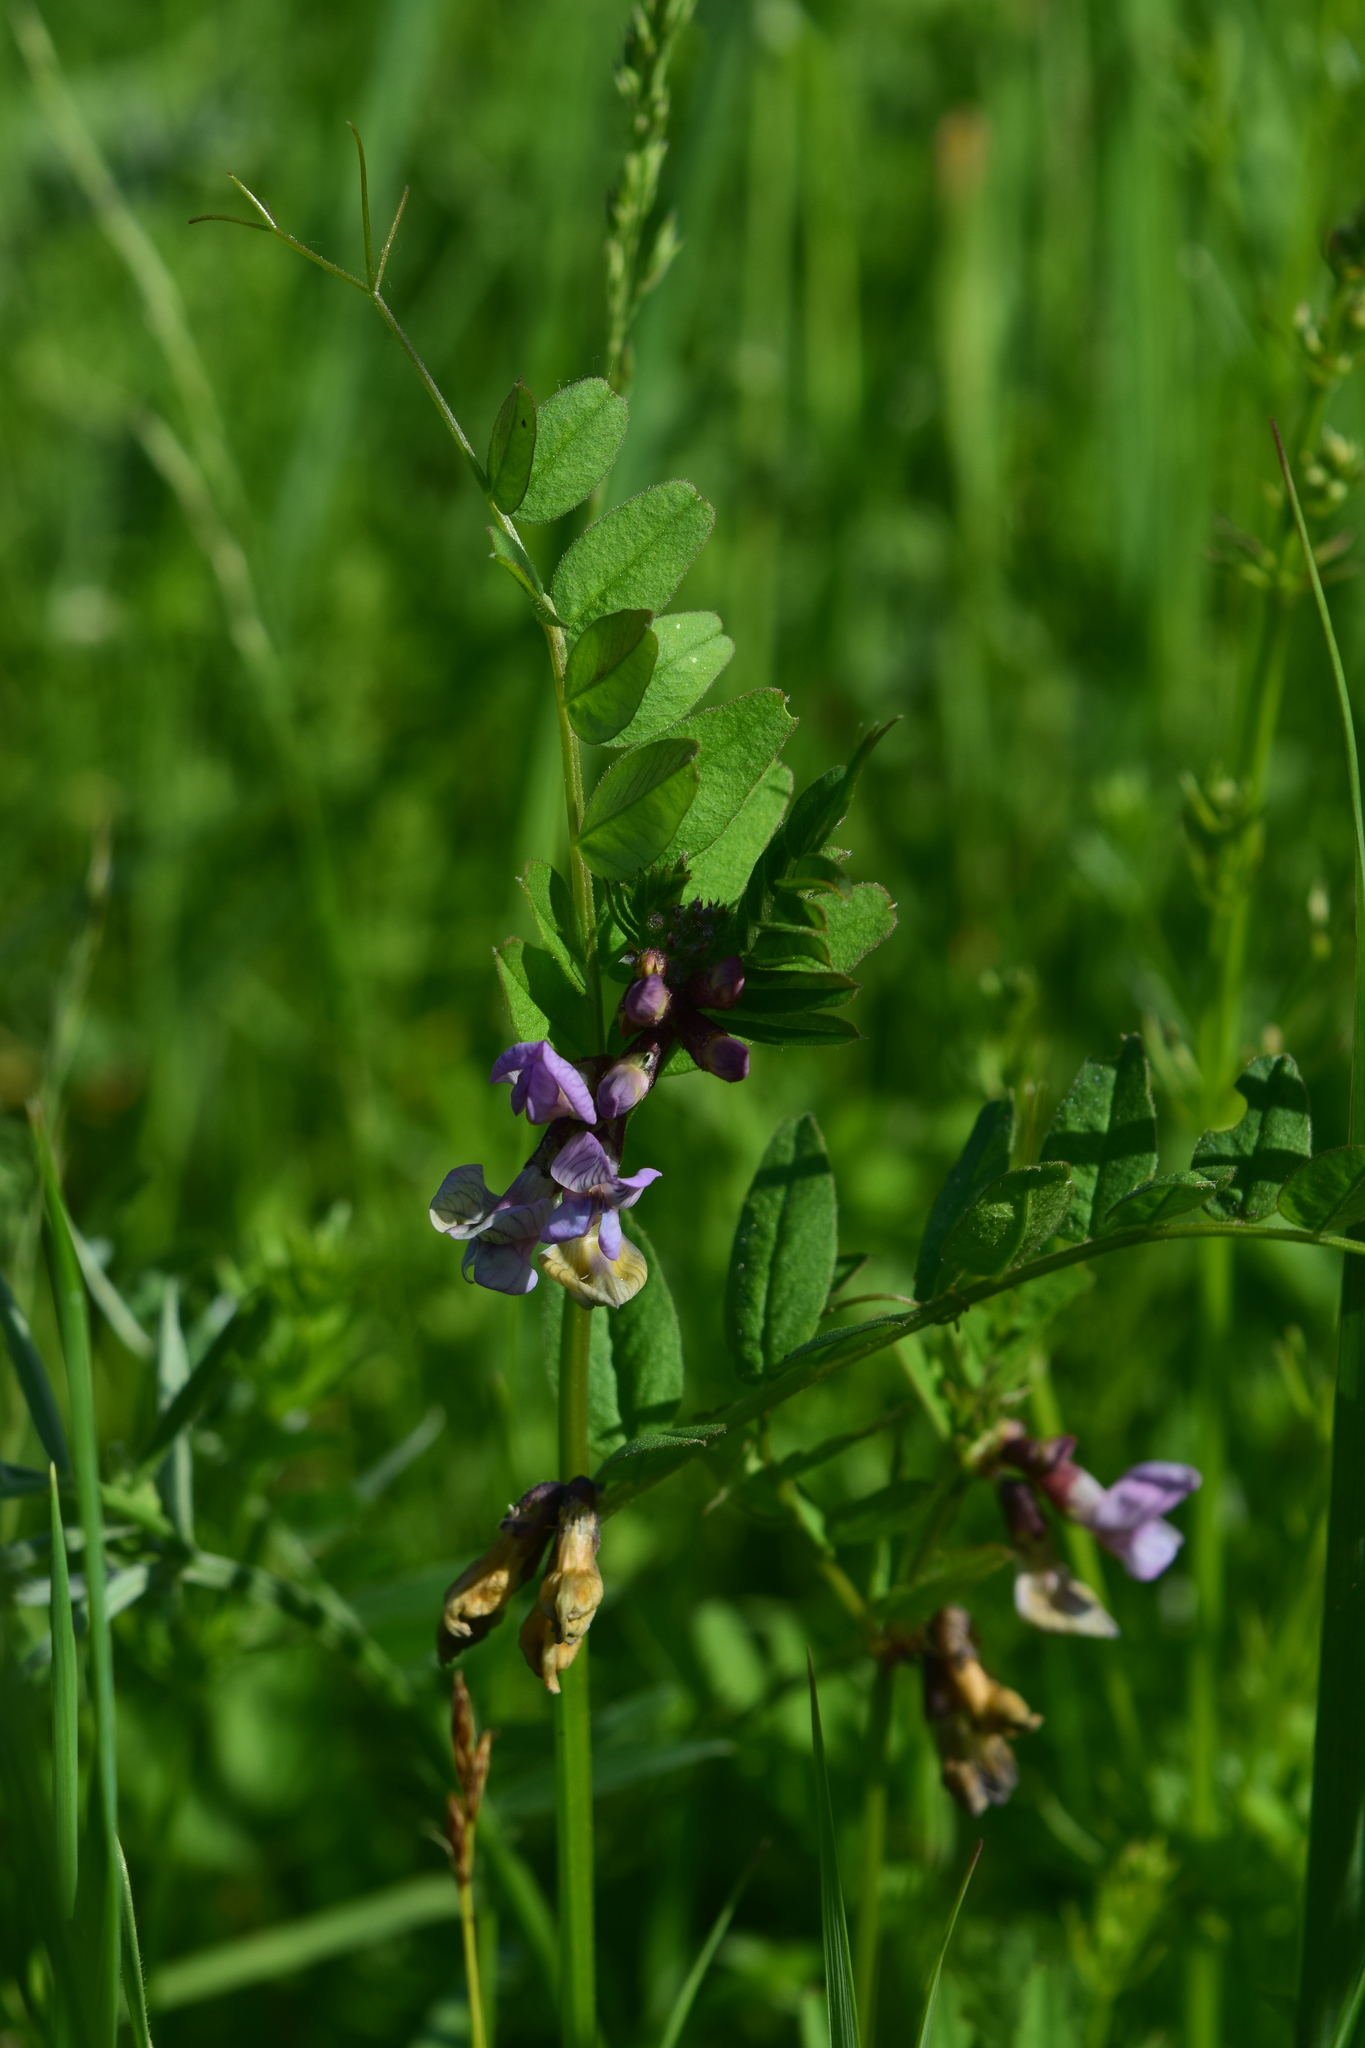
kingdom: Plantae
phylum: Tracheophyta
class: Magnoliopsida
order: Fabales
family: Fabaceae
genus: Vicia
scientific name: Vicia sepium
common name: Bush vetch
